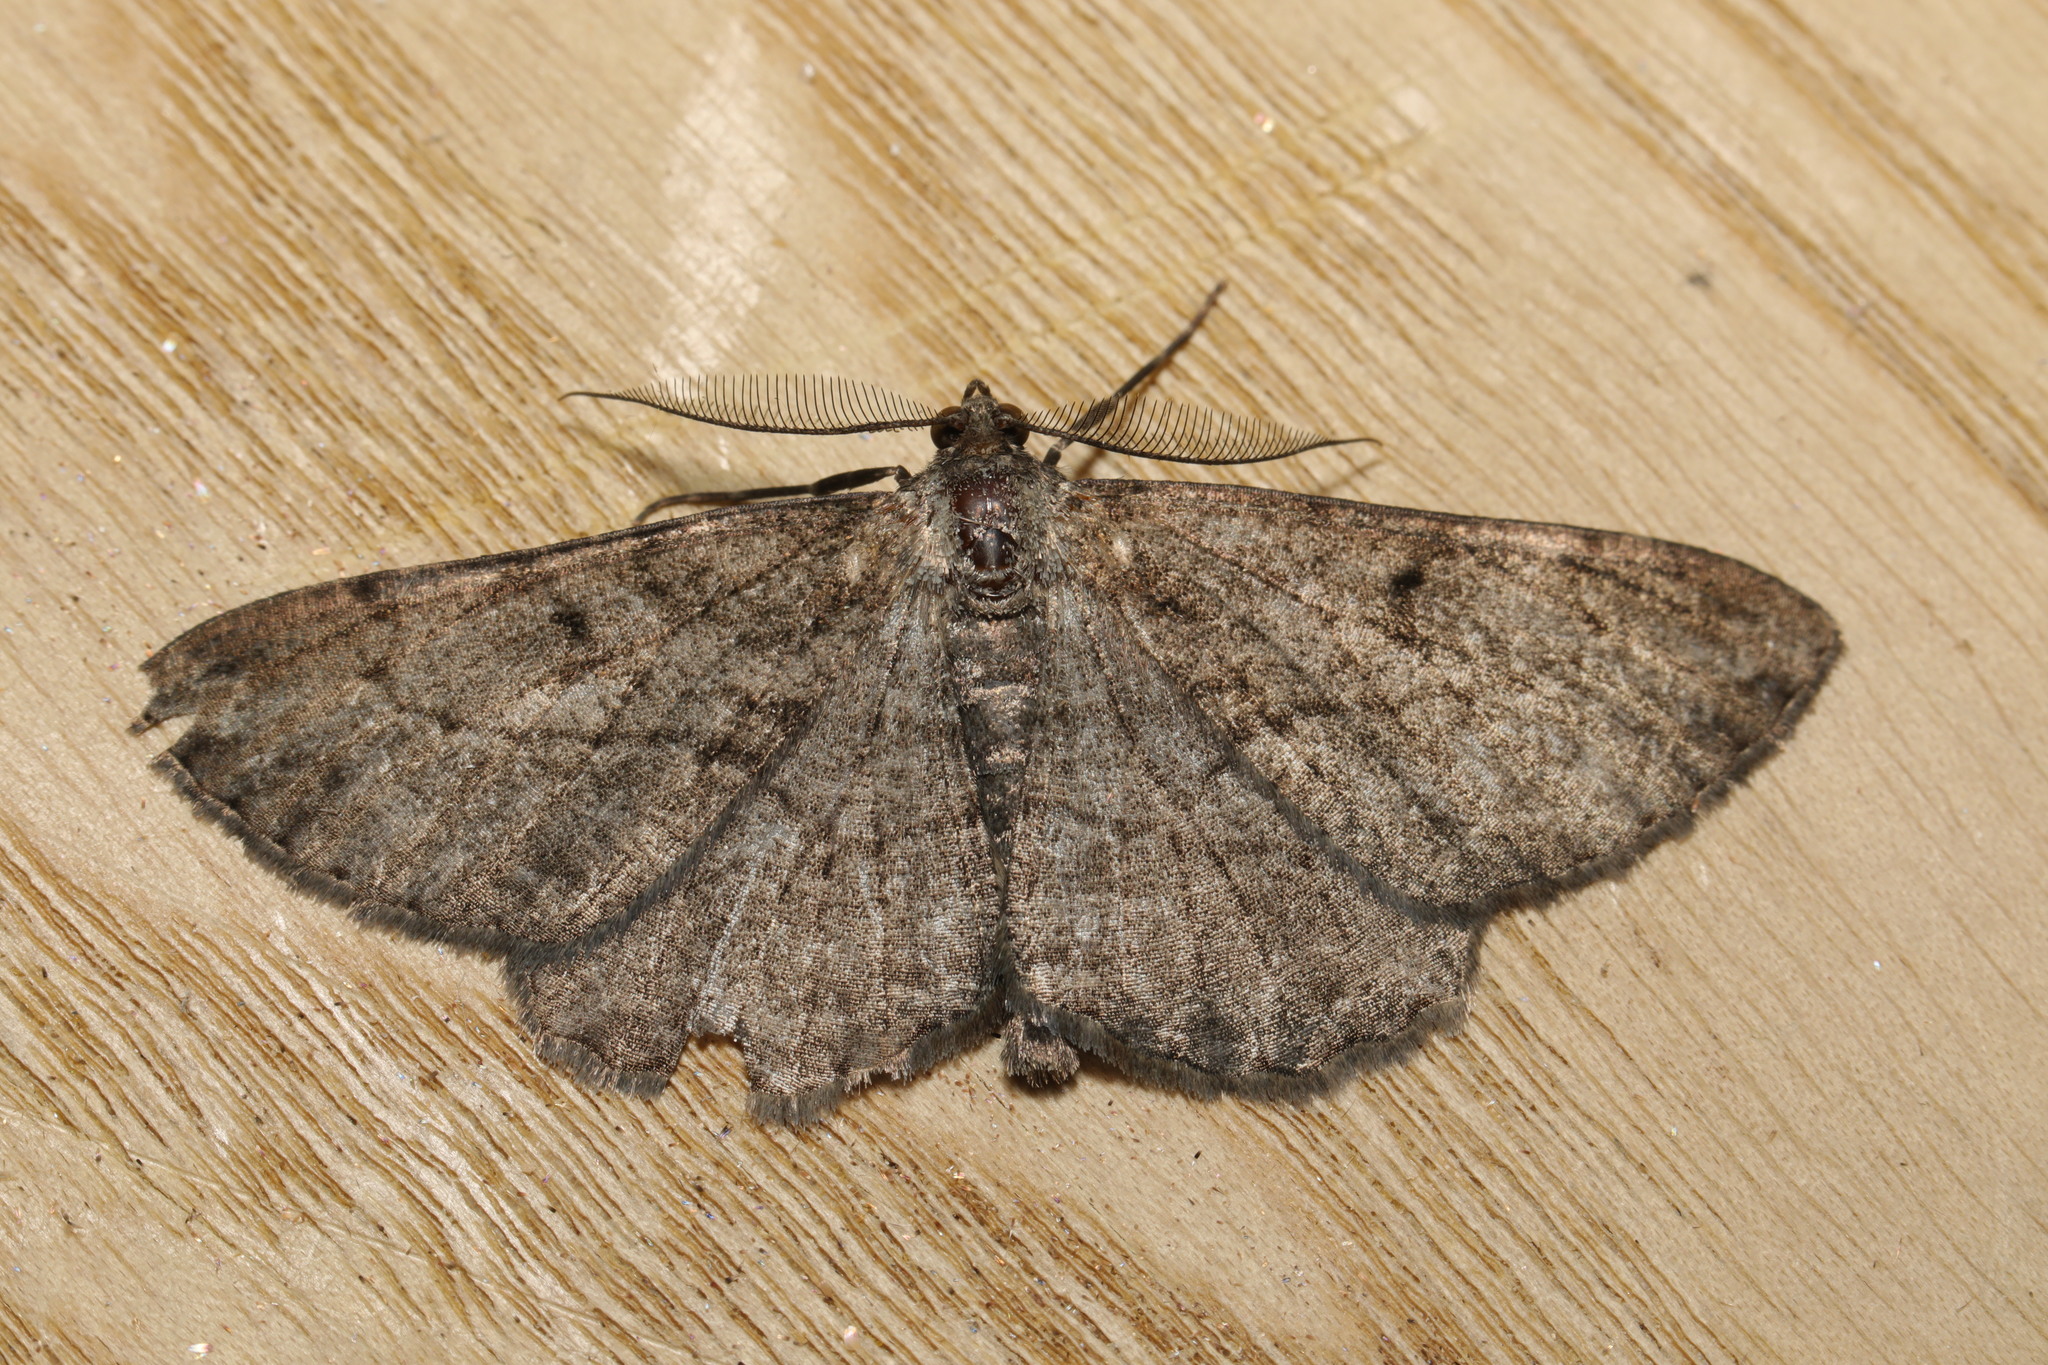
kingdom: Animalia
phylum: Arthropoda
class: Insecta
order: Lepidoptera
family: Geometridae
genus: Peribatodes
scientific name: Peribatodes rhomboidaria
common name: Willow beauty
